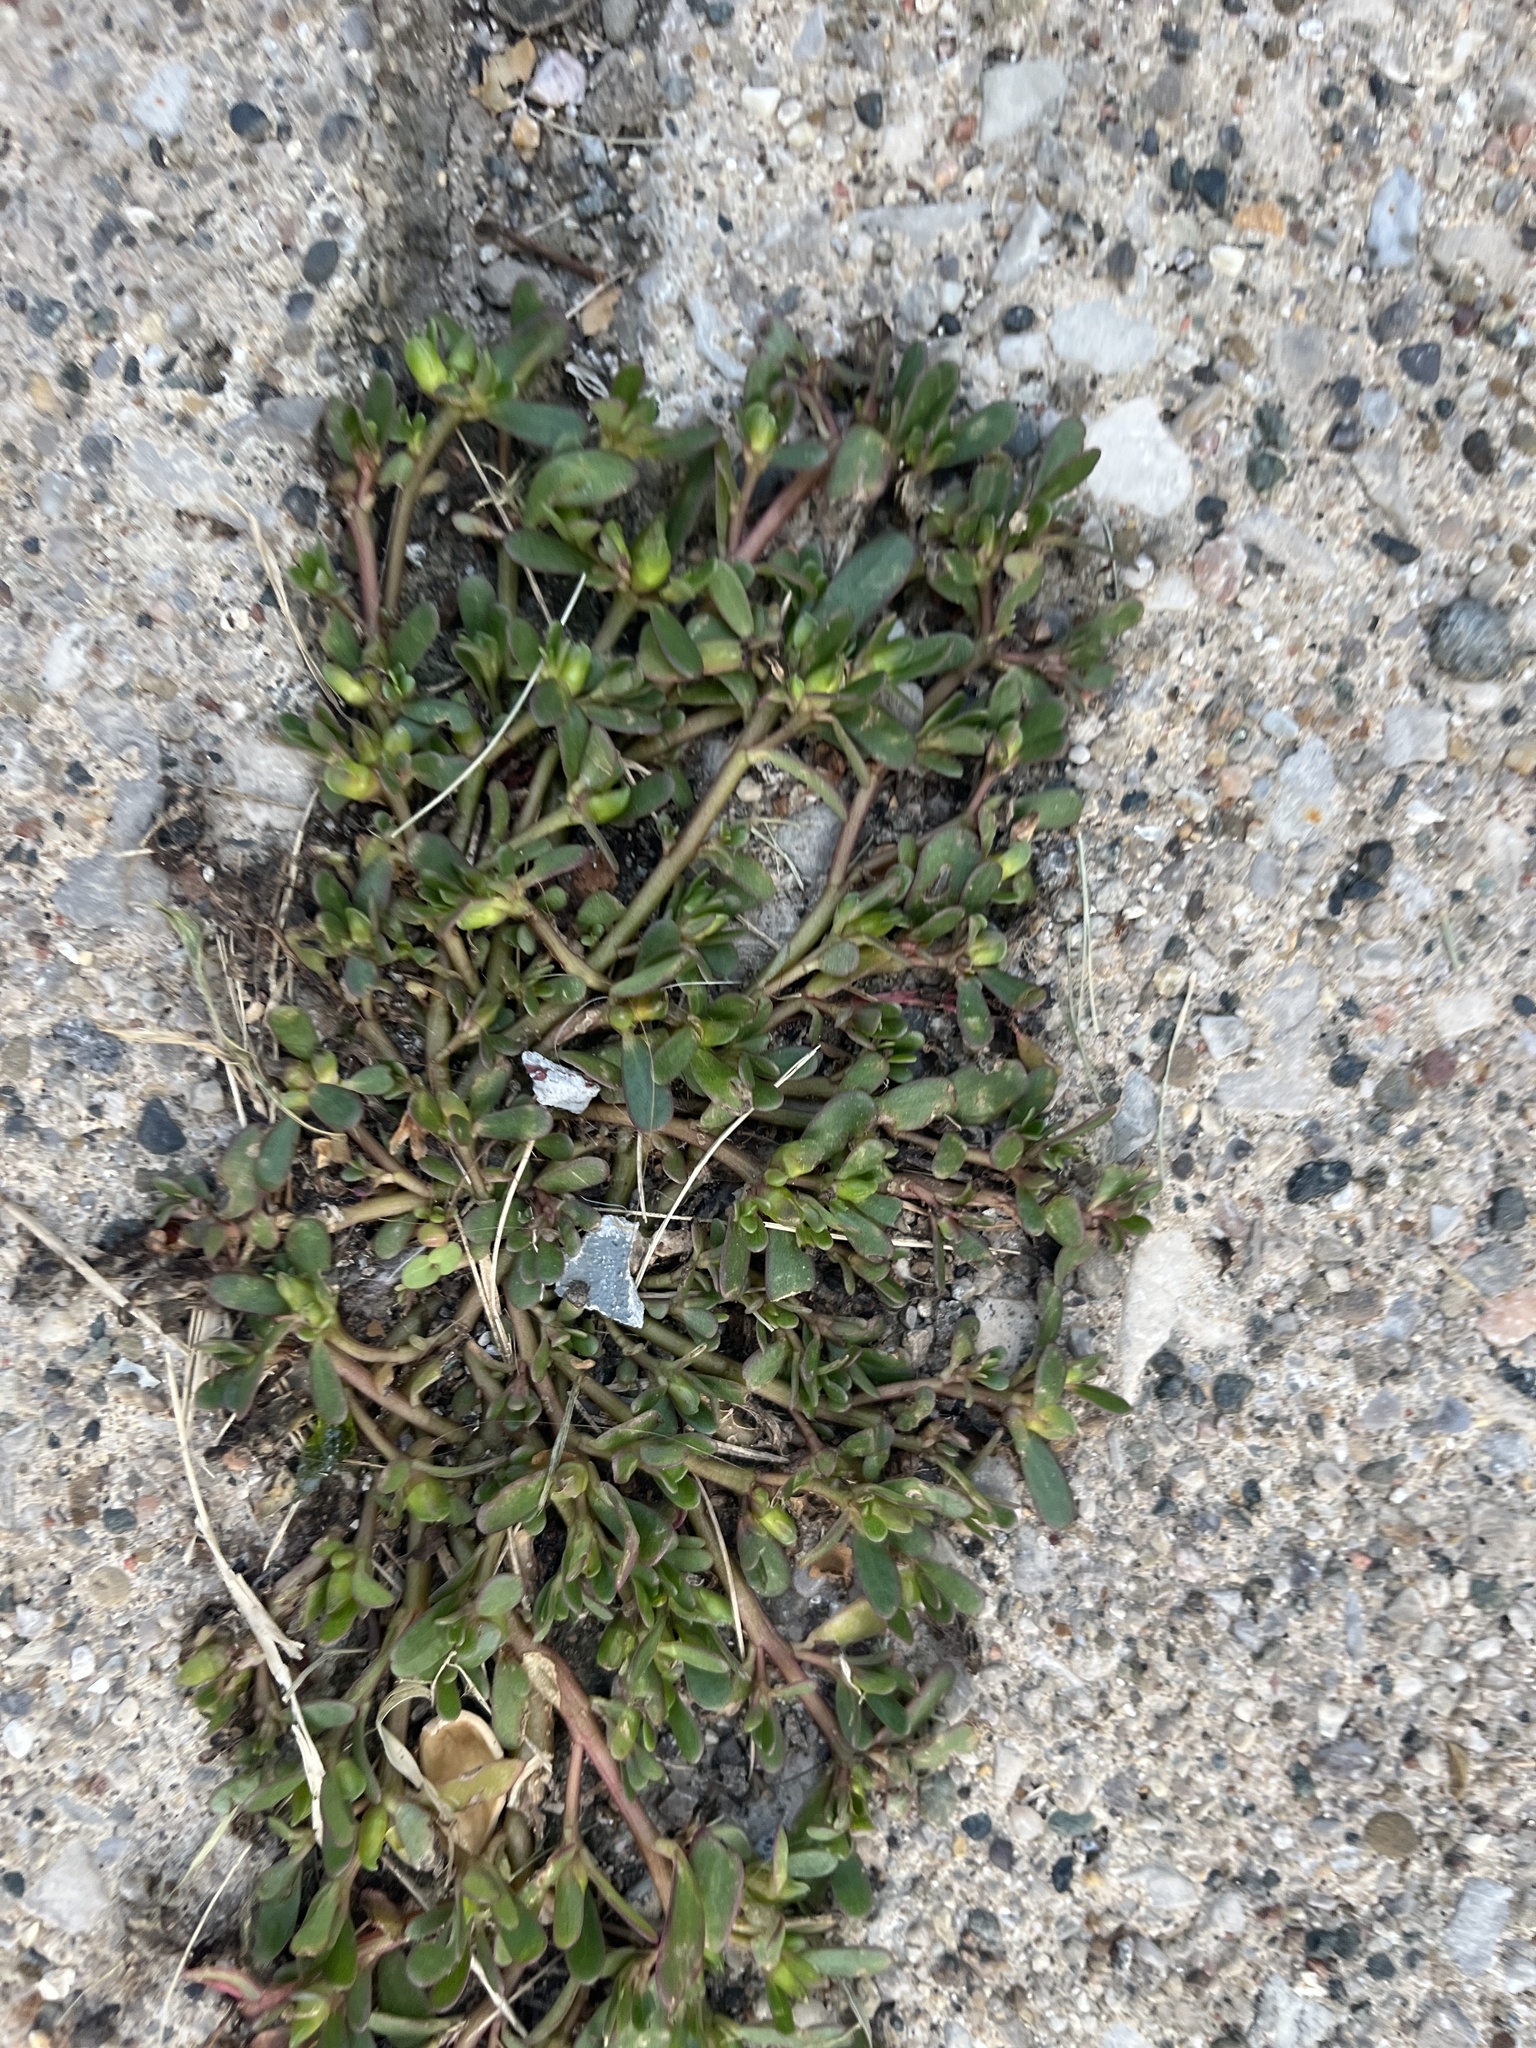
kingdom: Plantae
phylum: Tracheophyta
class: Magnoliopsida
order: Caryophyllales
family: Portulacaceae
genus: Portulaca
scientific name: Portulaca oleracea
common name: Common purslane
